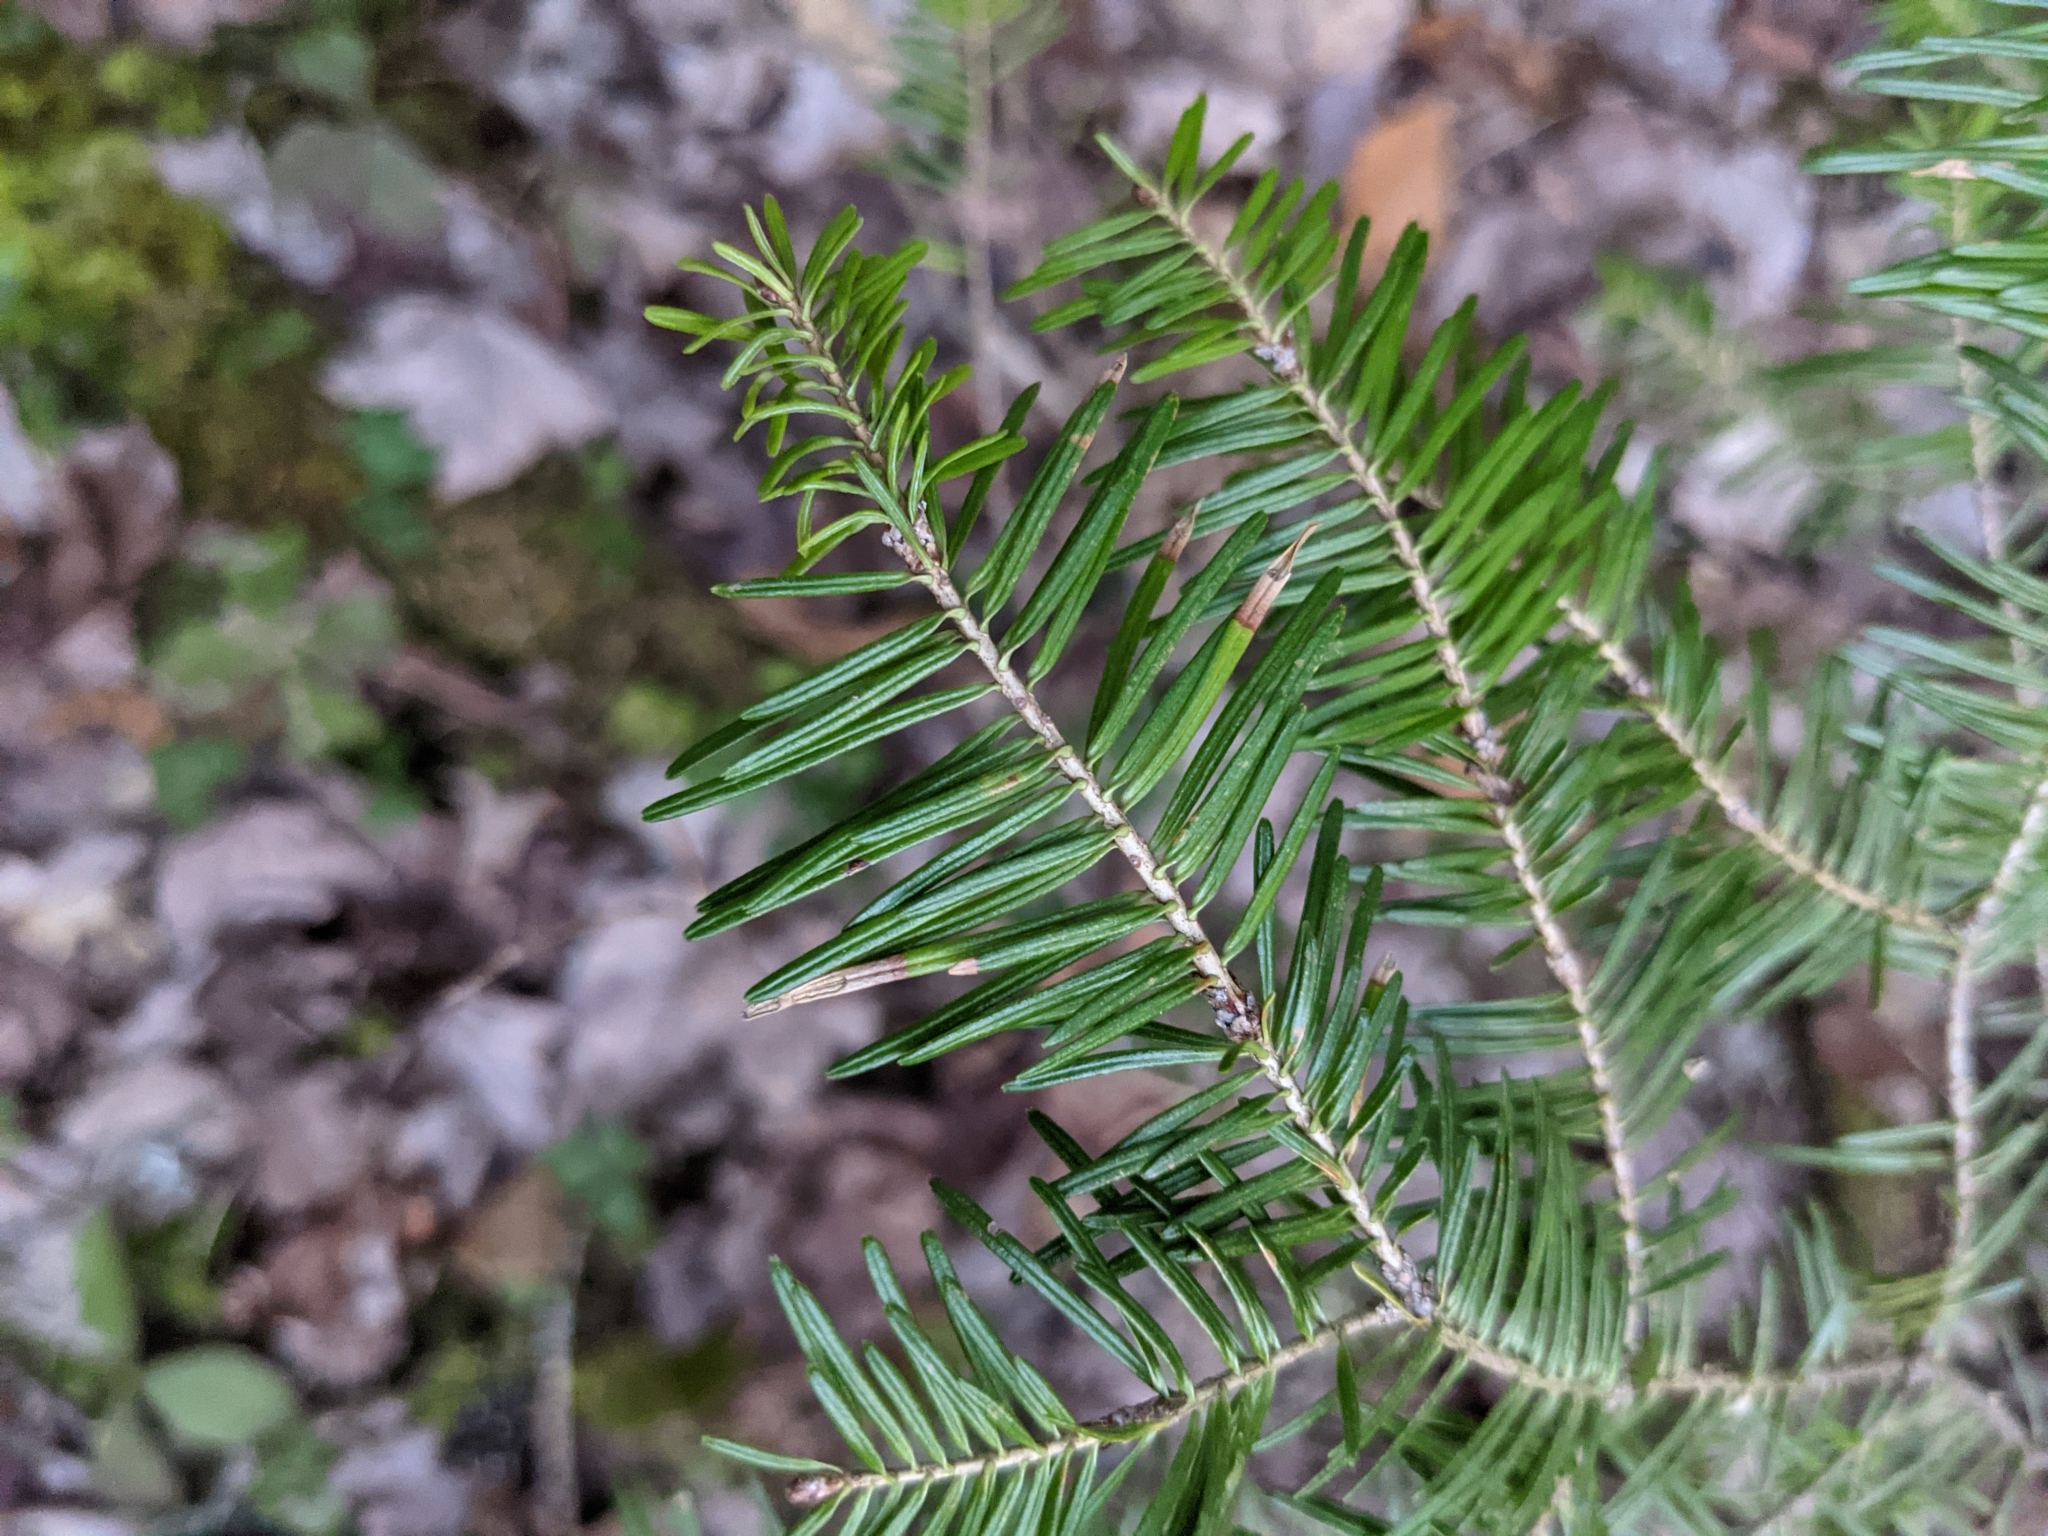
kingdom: Plantae
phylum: Tracheophyta
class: Pinopsida
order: Pinales
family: Pinaceae
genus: Abies
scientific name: Abies balsamea
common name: Balsam fir
